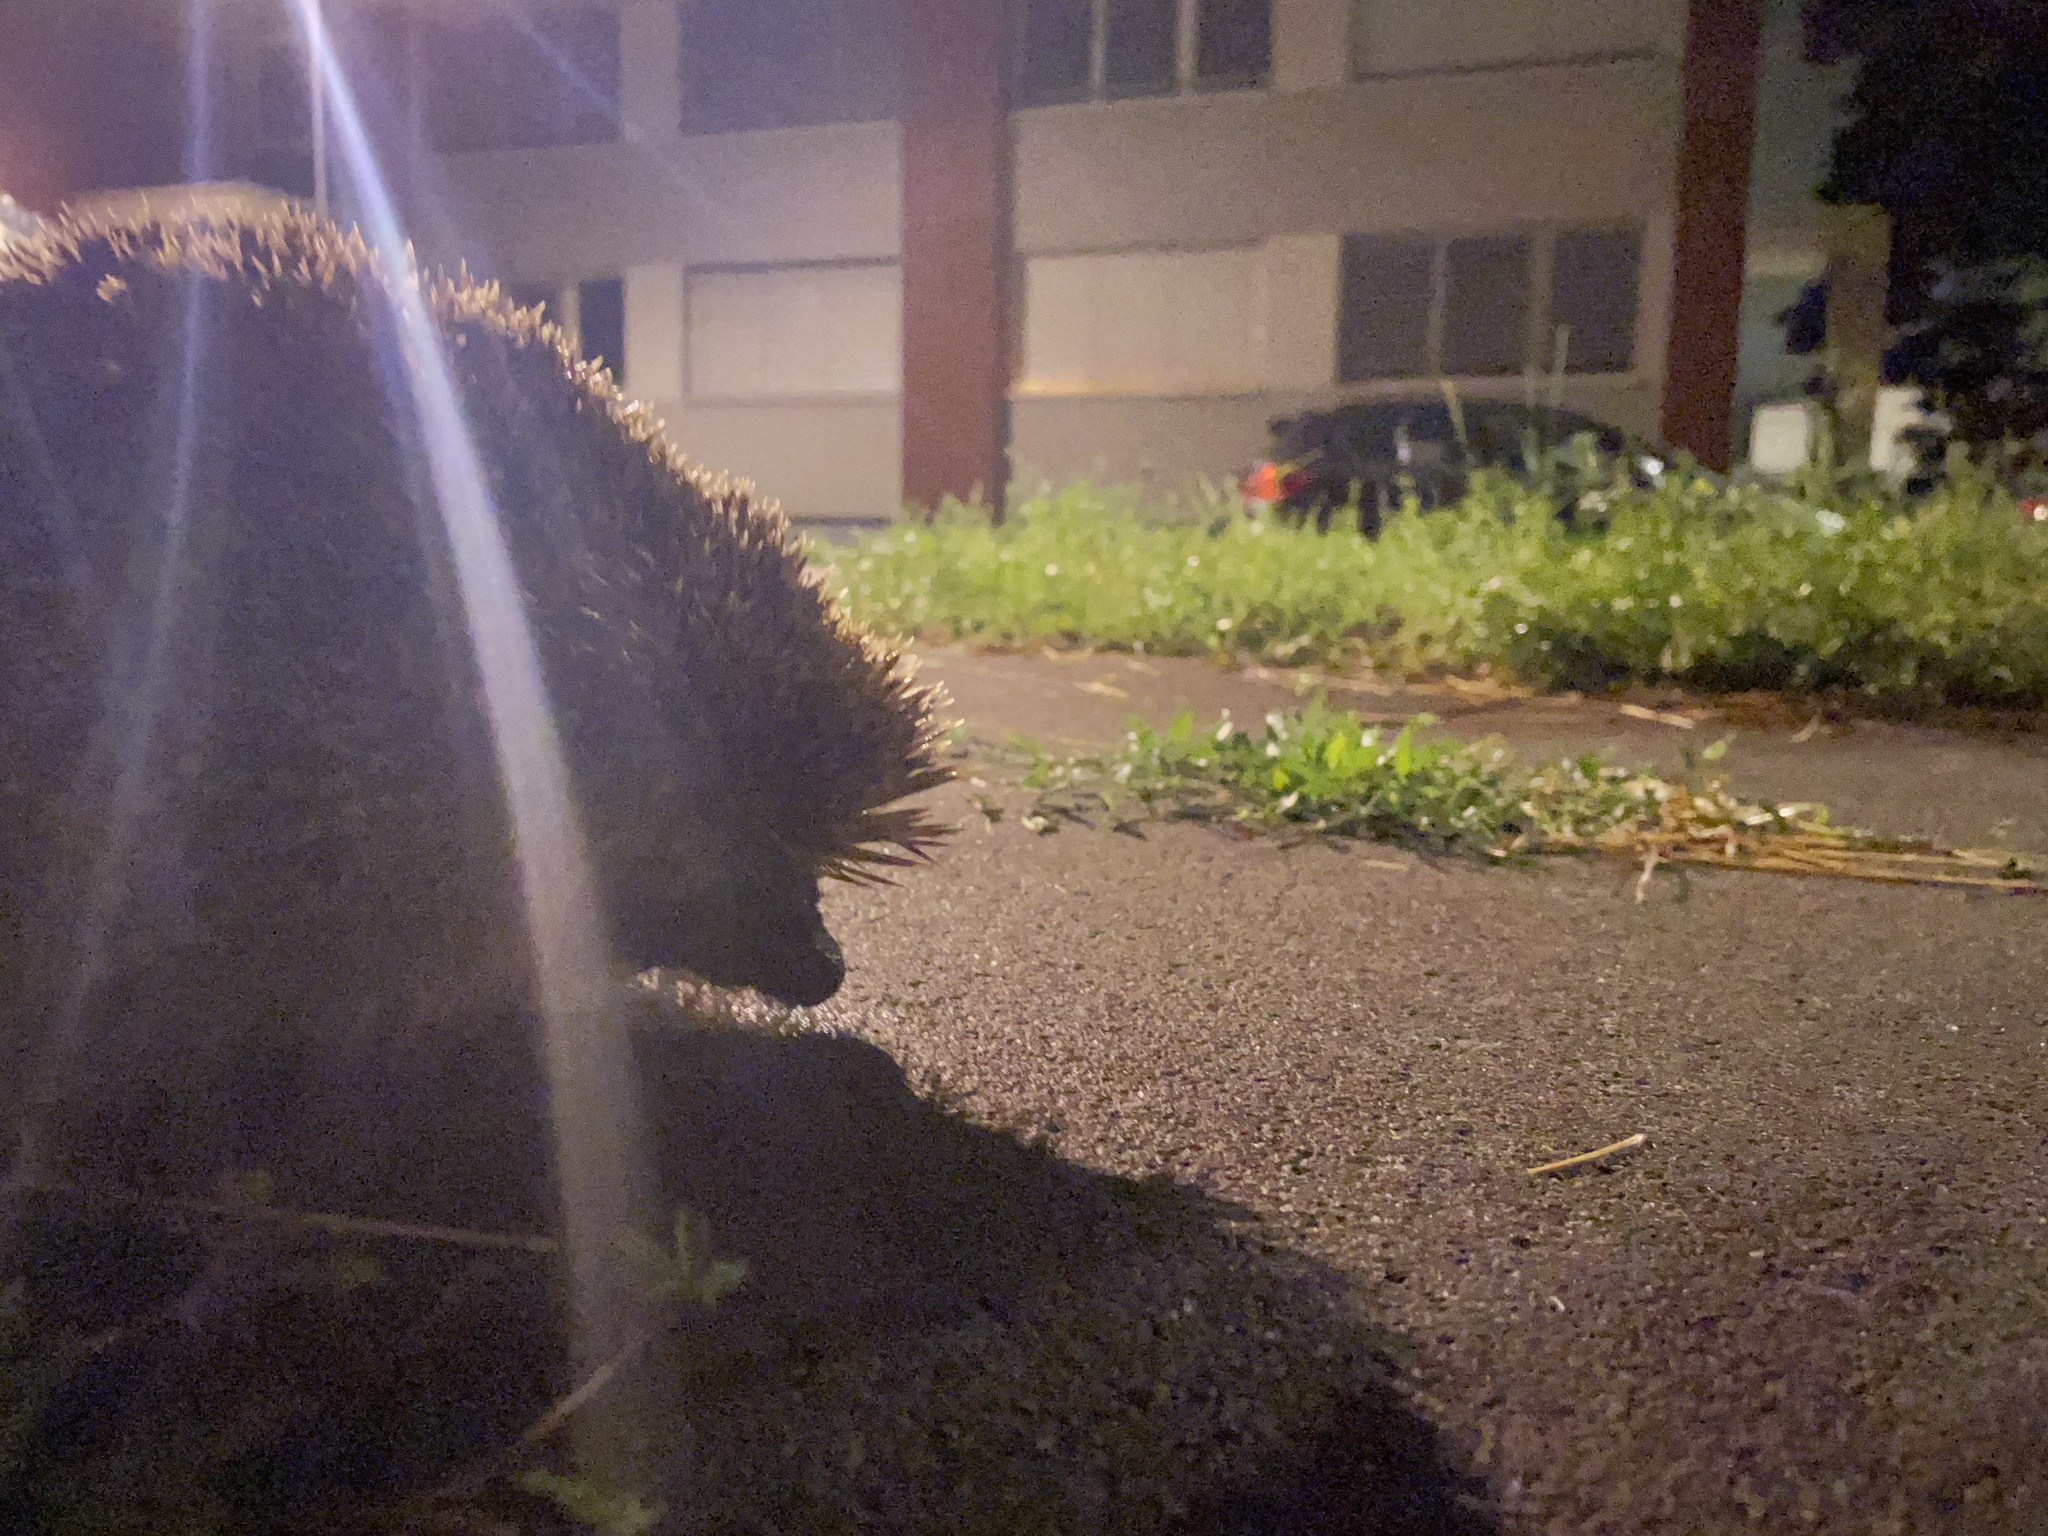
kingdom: Animalia
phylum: Chordata
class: Mammalia
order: Erinaceomorpha
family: Erinaceidae
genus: Erinaceus
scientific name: Erinaceus europaeus
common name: West european hedgehog
